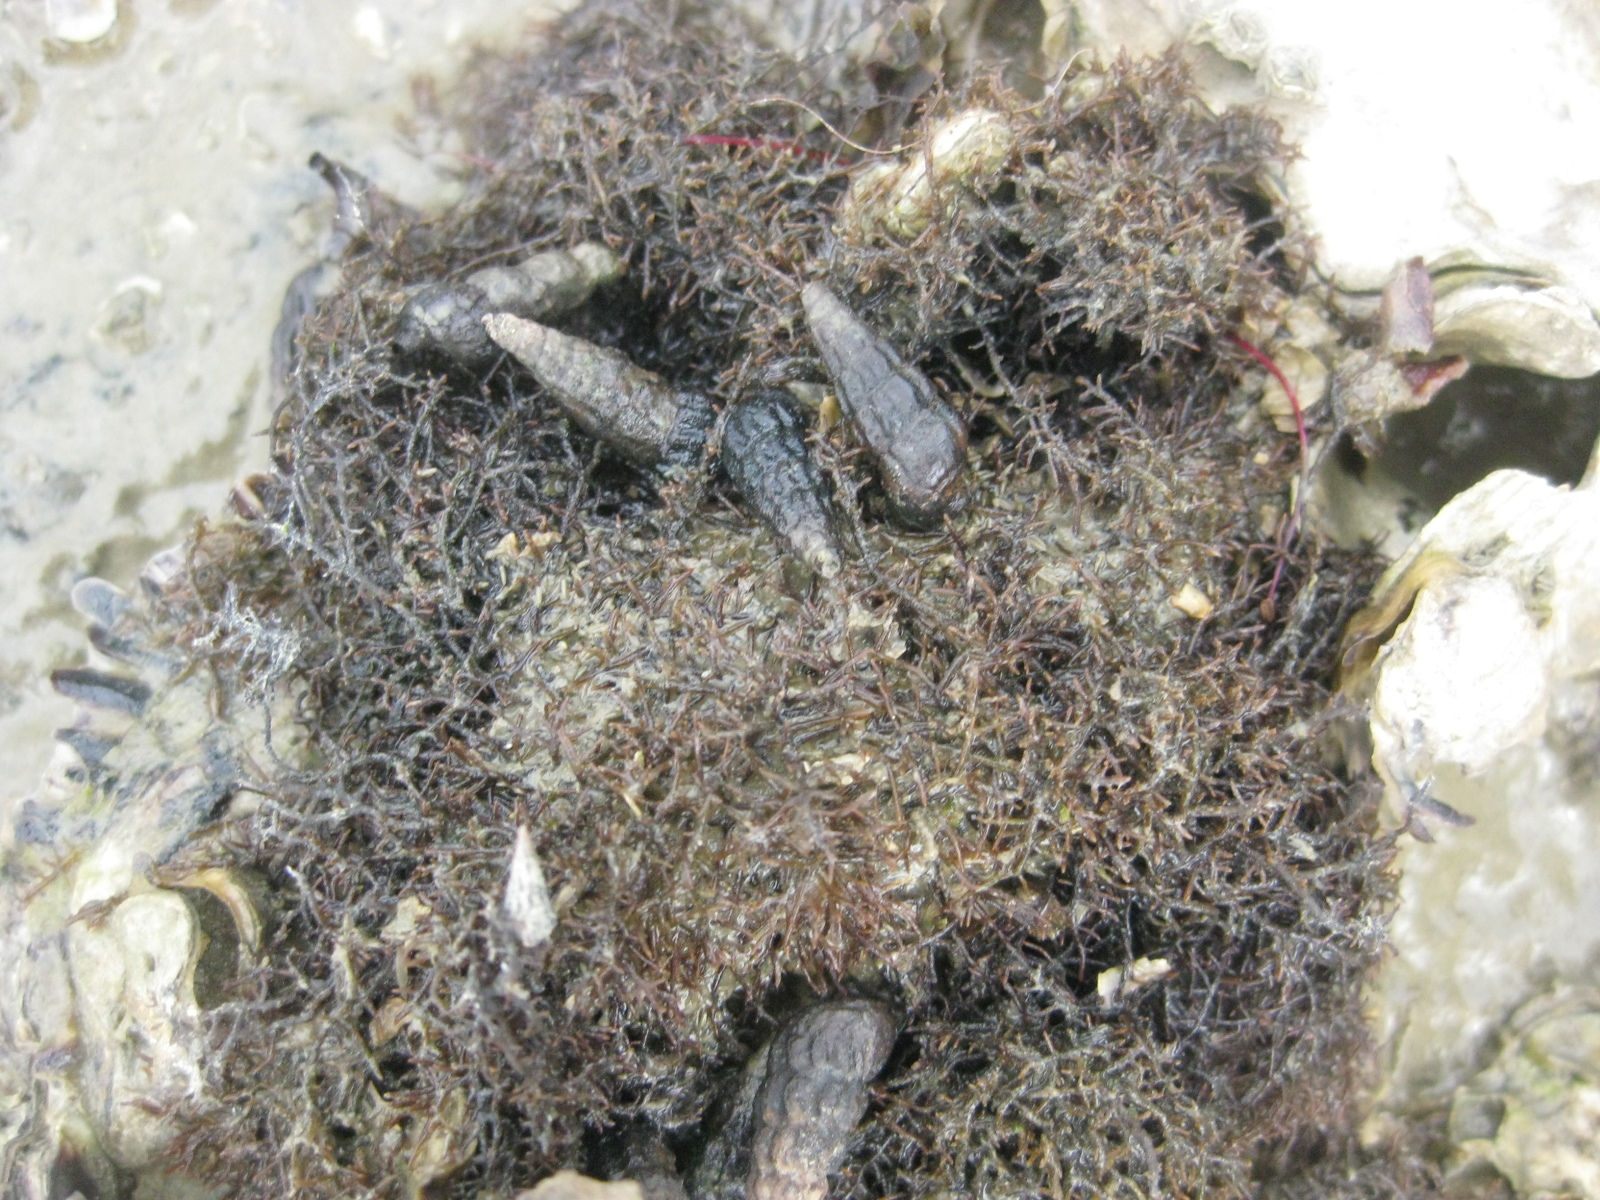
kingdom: Animalia
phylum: Mollusca
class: Gastropoda
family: Batillariidae
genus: Zeacumantus
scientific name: Zeacumantus subcarinatus
